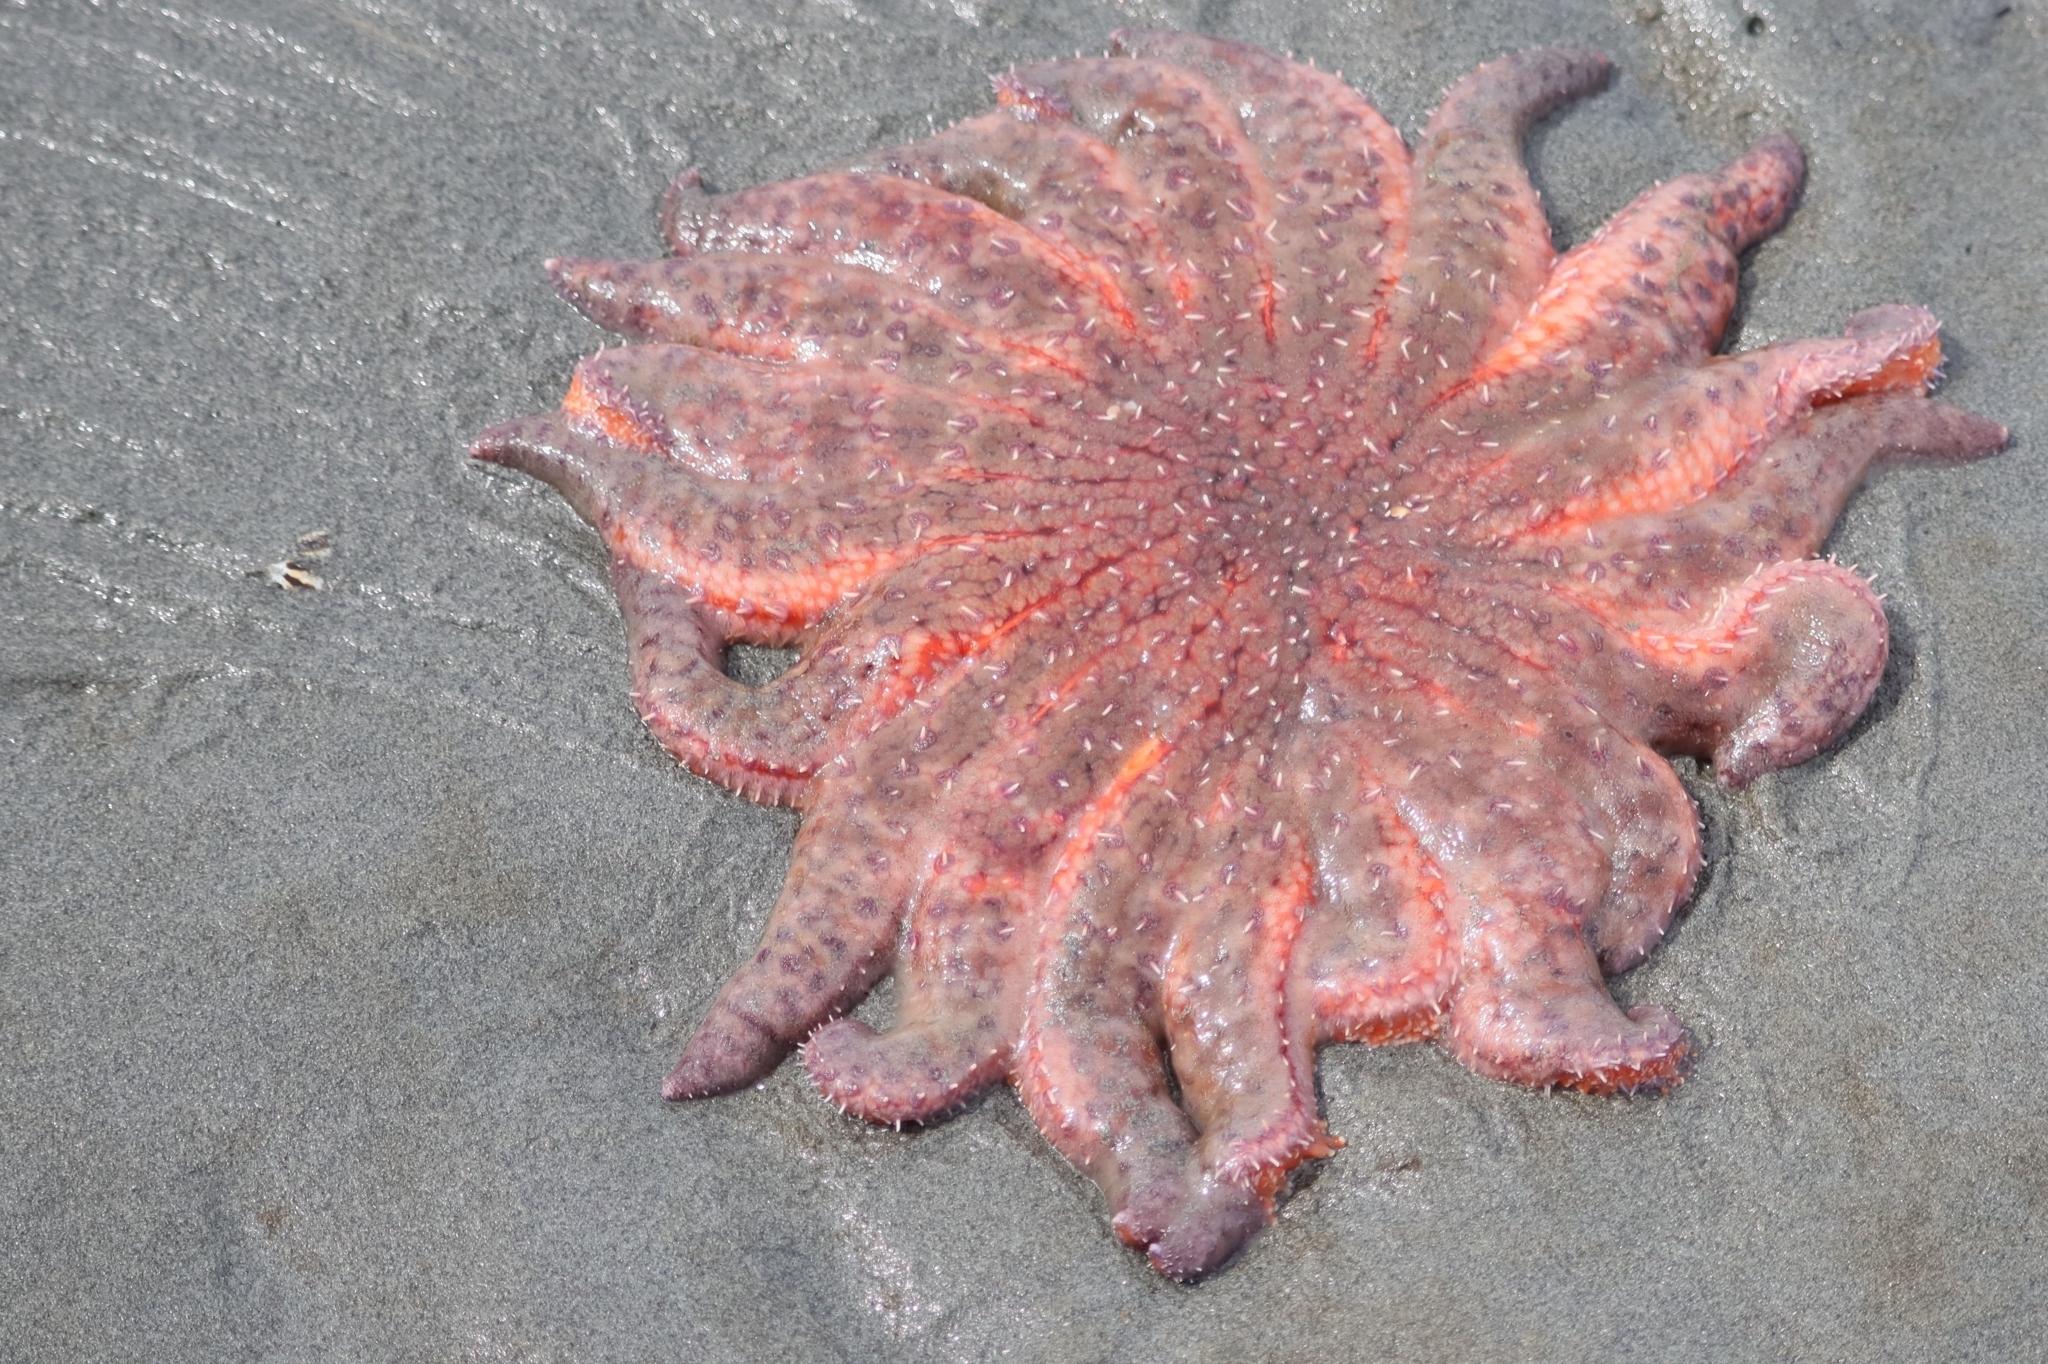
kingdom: Animalia
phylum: Echinodermata
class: Asteroidea
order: Forcipulatida
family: Asteriidae
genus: Pycnopodia
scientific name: Pycnopodia helianthoides
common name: Rag mop
